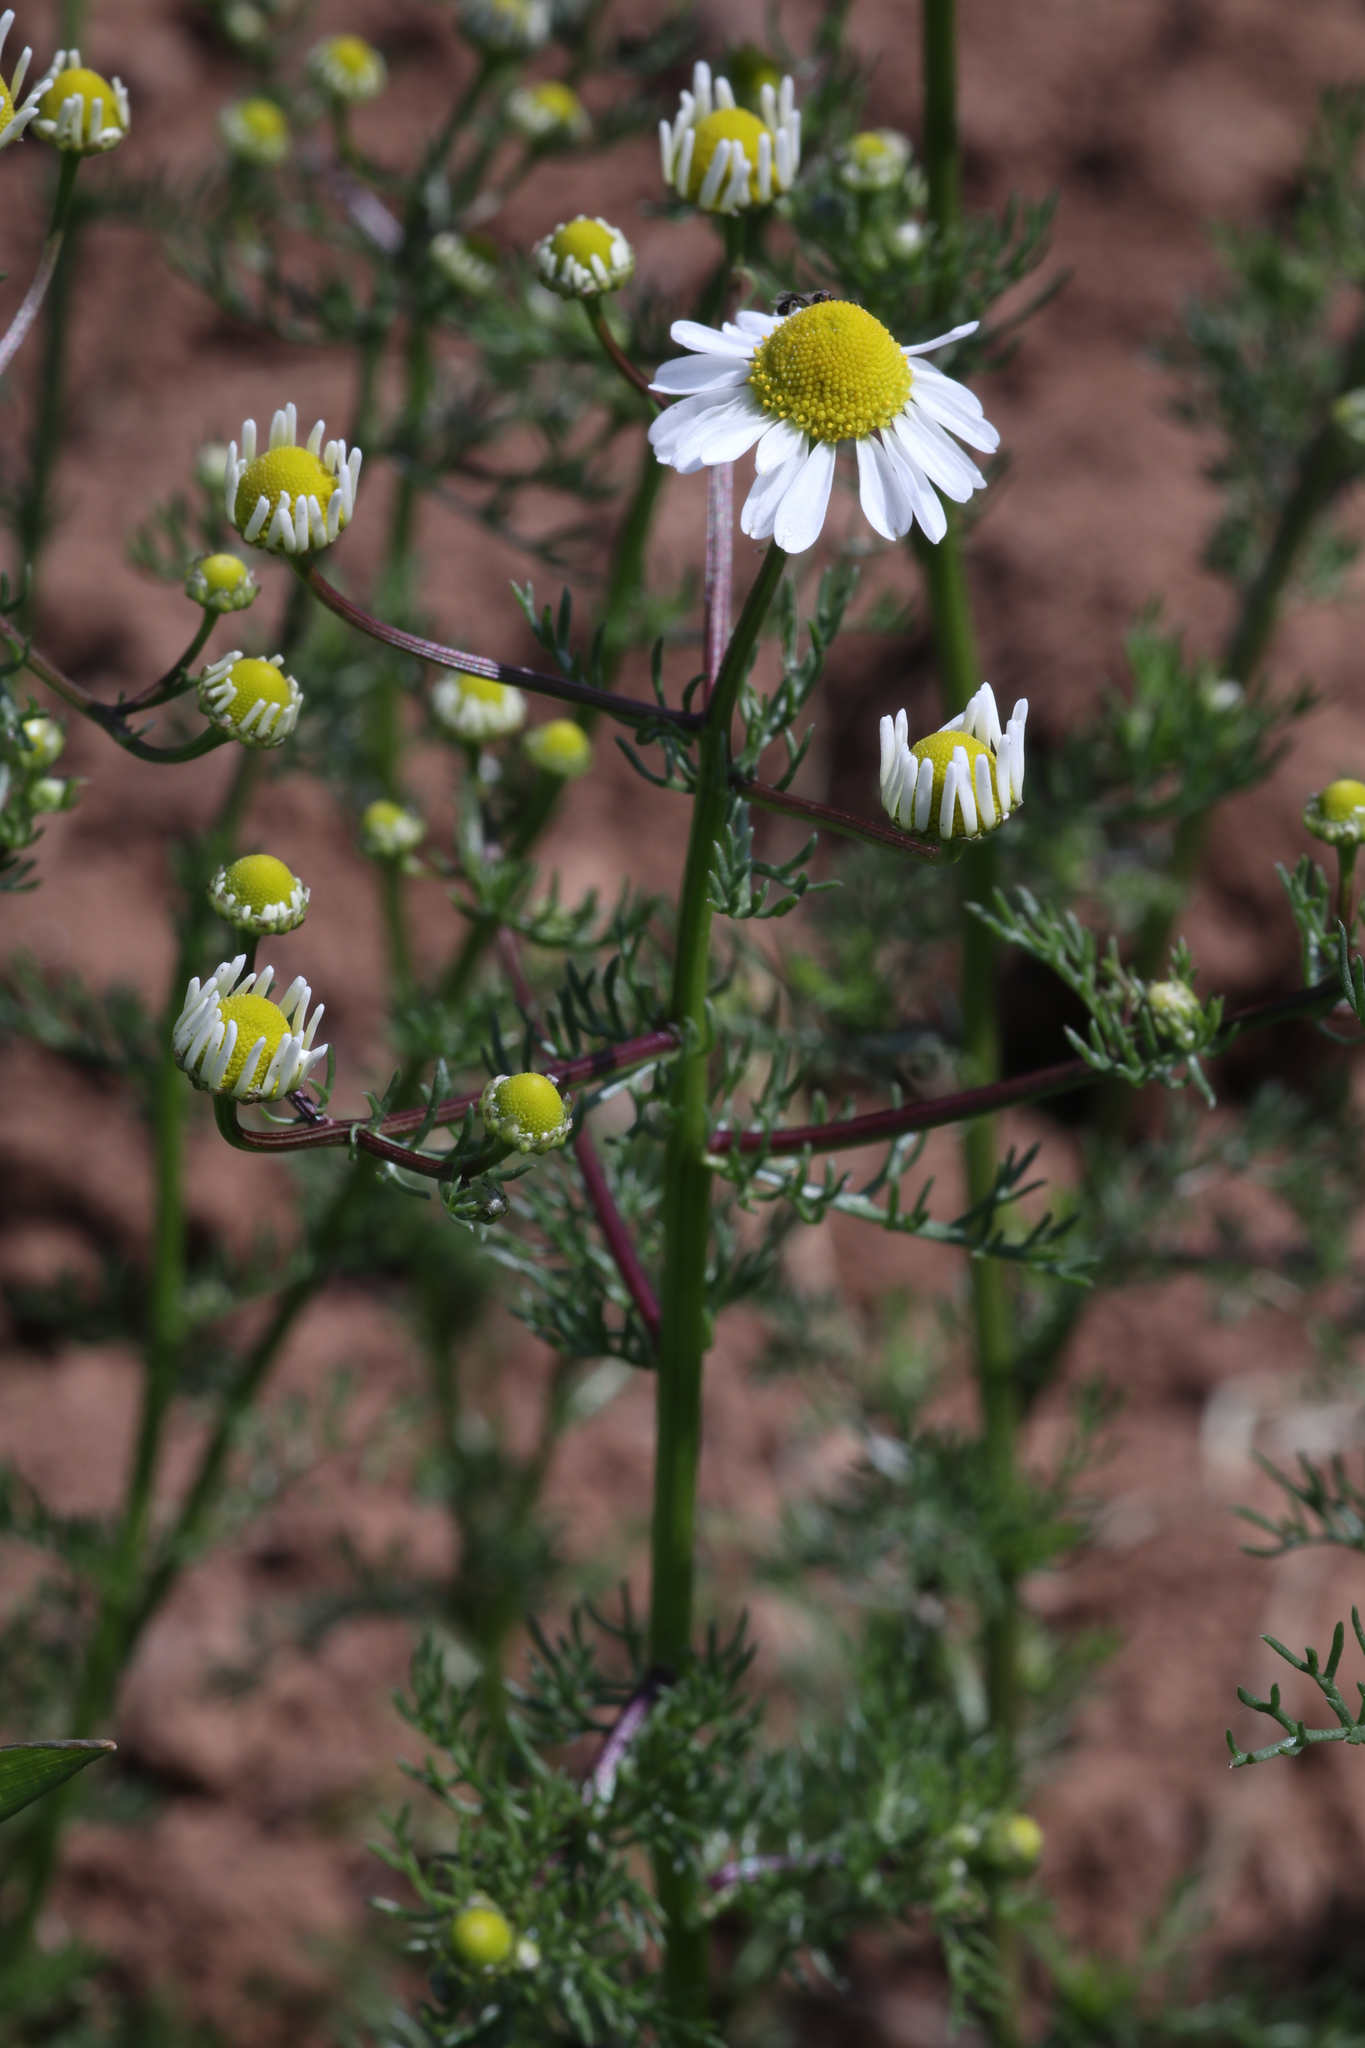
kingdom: Plantae
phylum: Tracheophyta
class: Magnoliopsida
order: Asterales
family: Asteraceae
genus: Matricaria
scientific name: Matricaria chamomilla
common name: Scented mayweed
